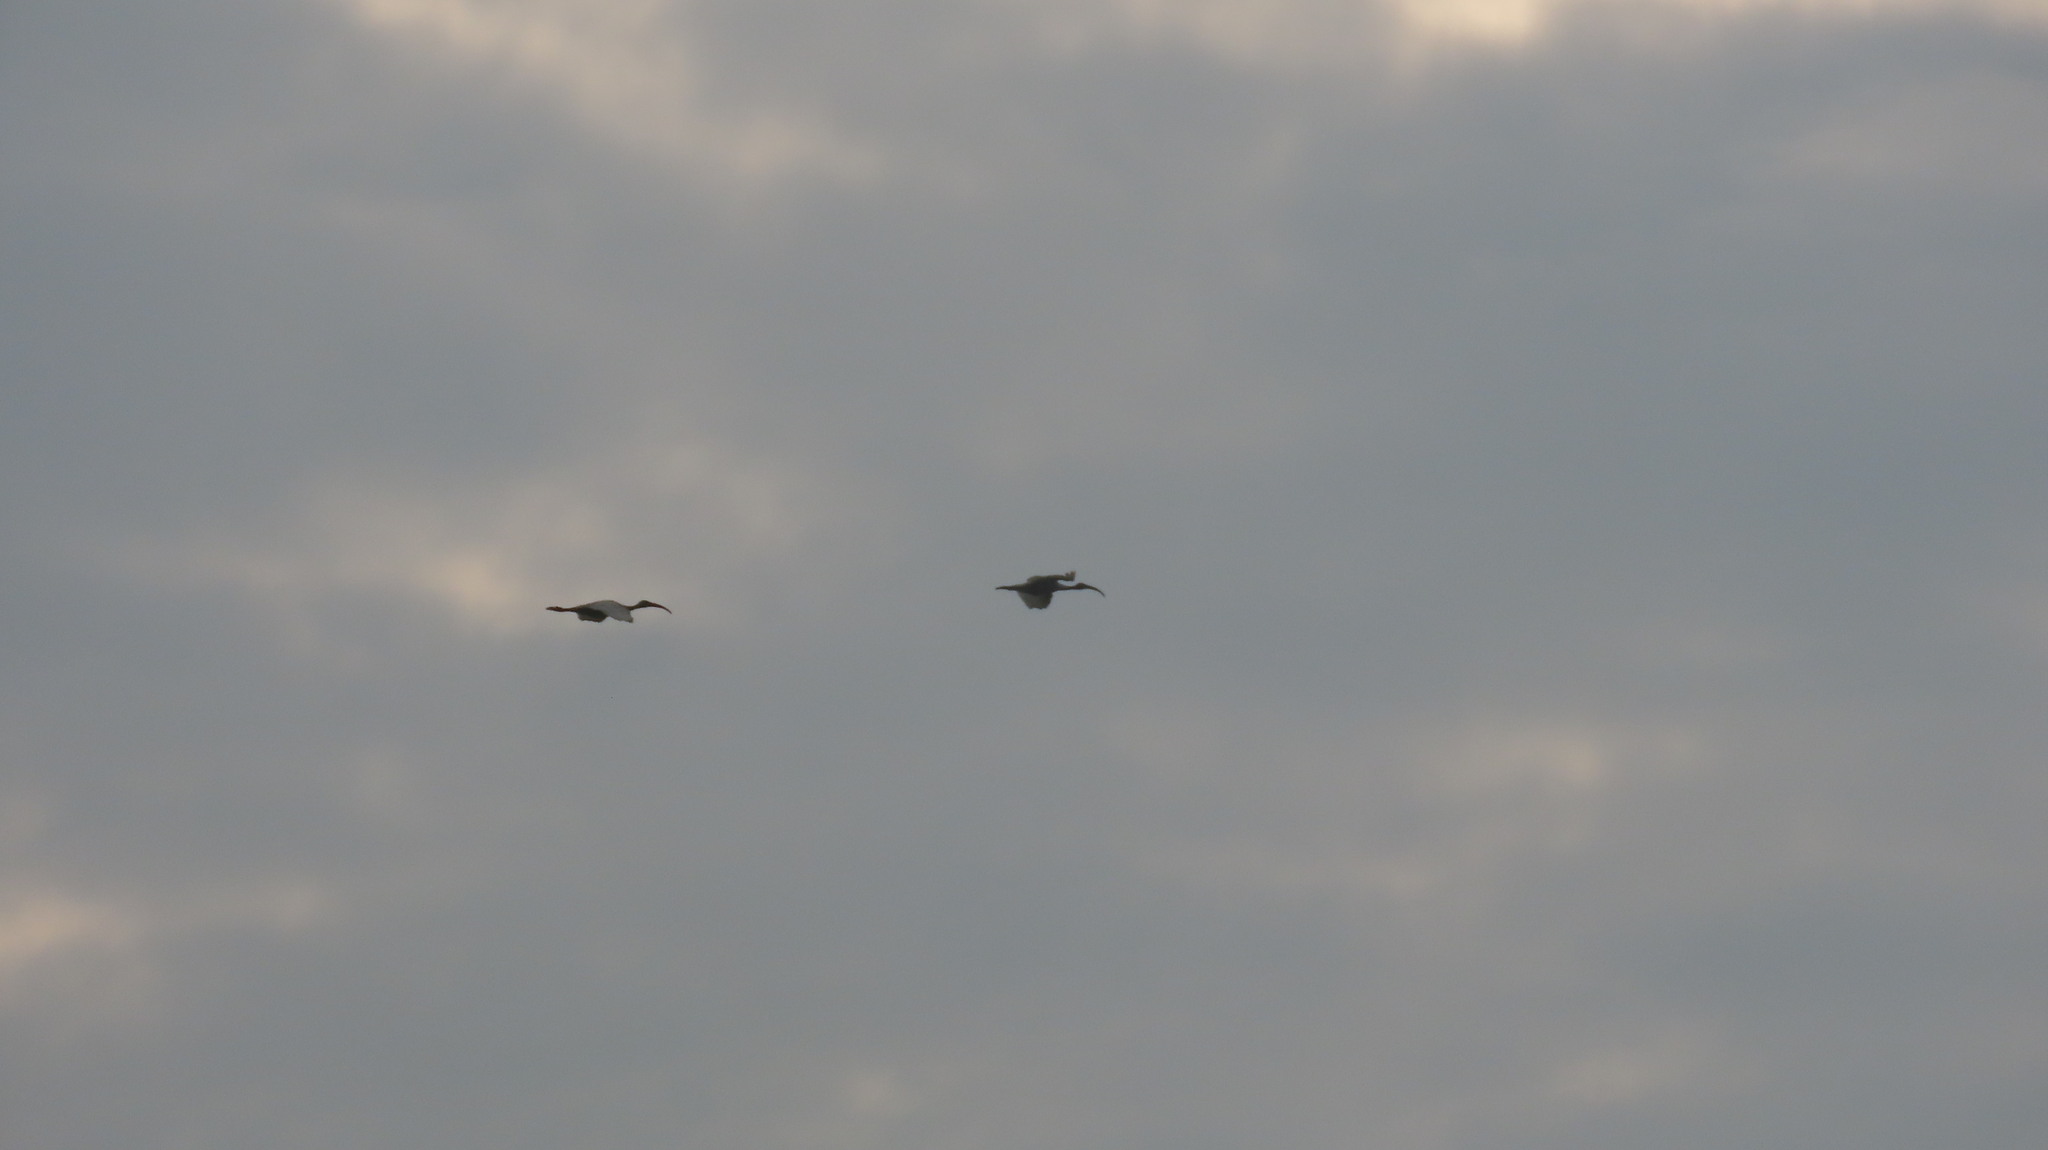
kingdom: Animalia
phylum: Chordata
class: Aves
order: Pelecaniformes
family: Threskiornithidae
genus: Threskiornis
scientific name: Threskiornis melanocephalus
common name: Black-headed ibis
